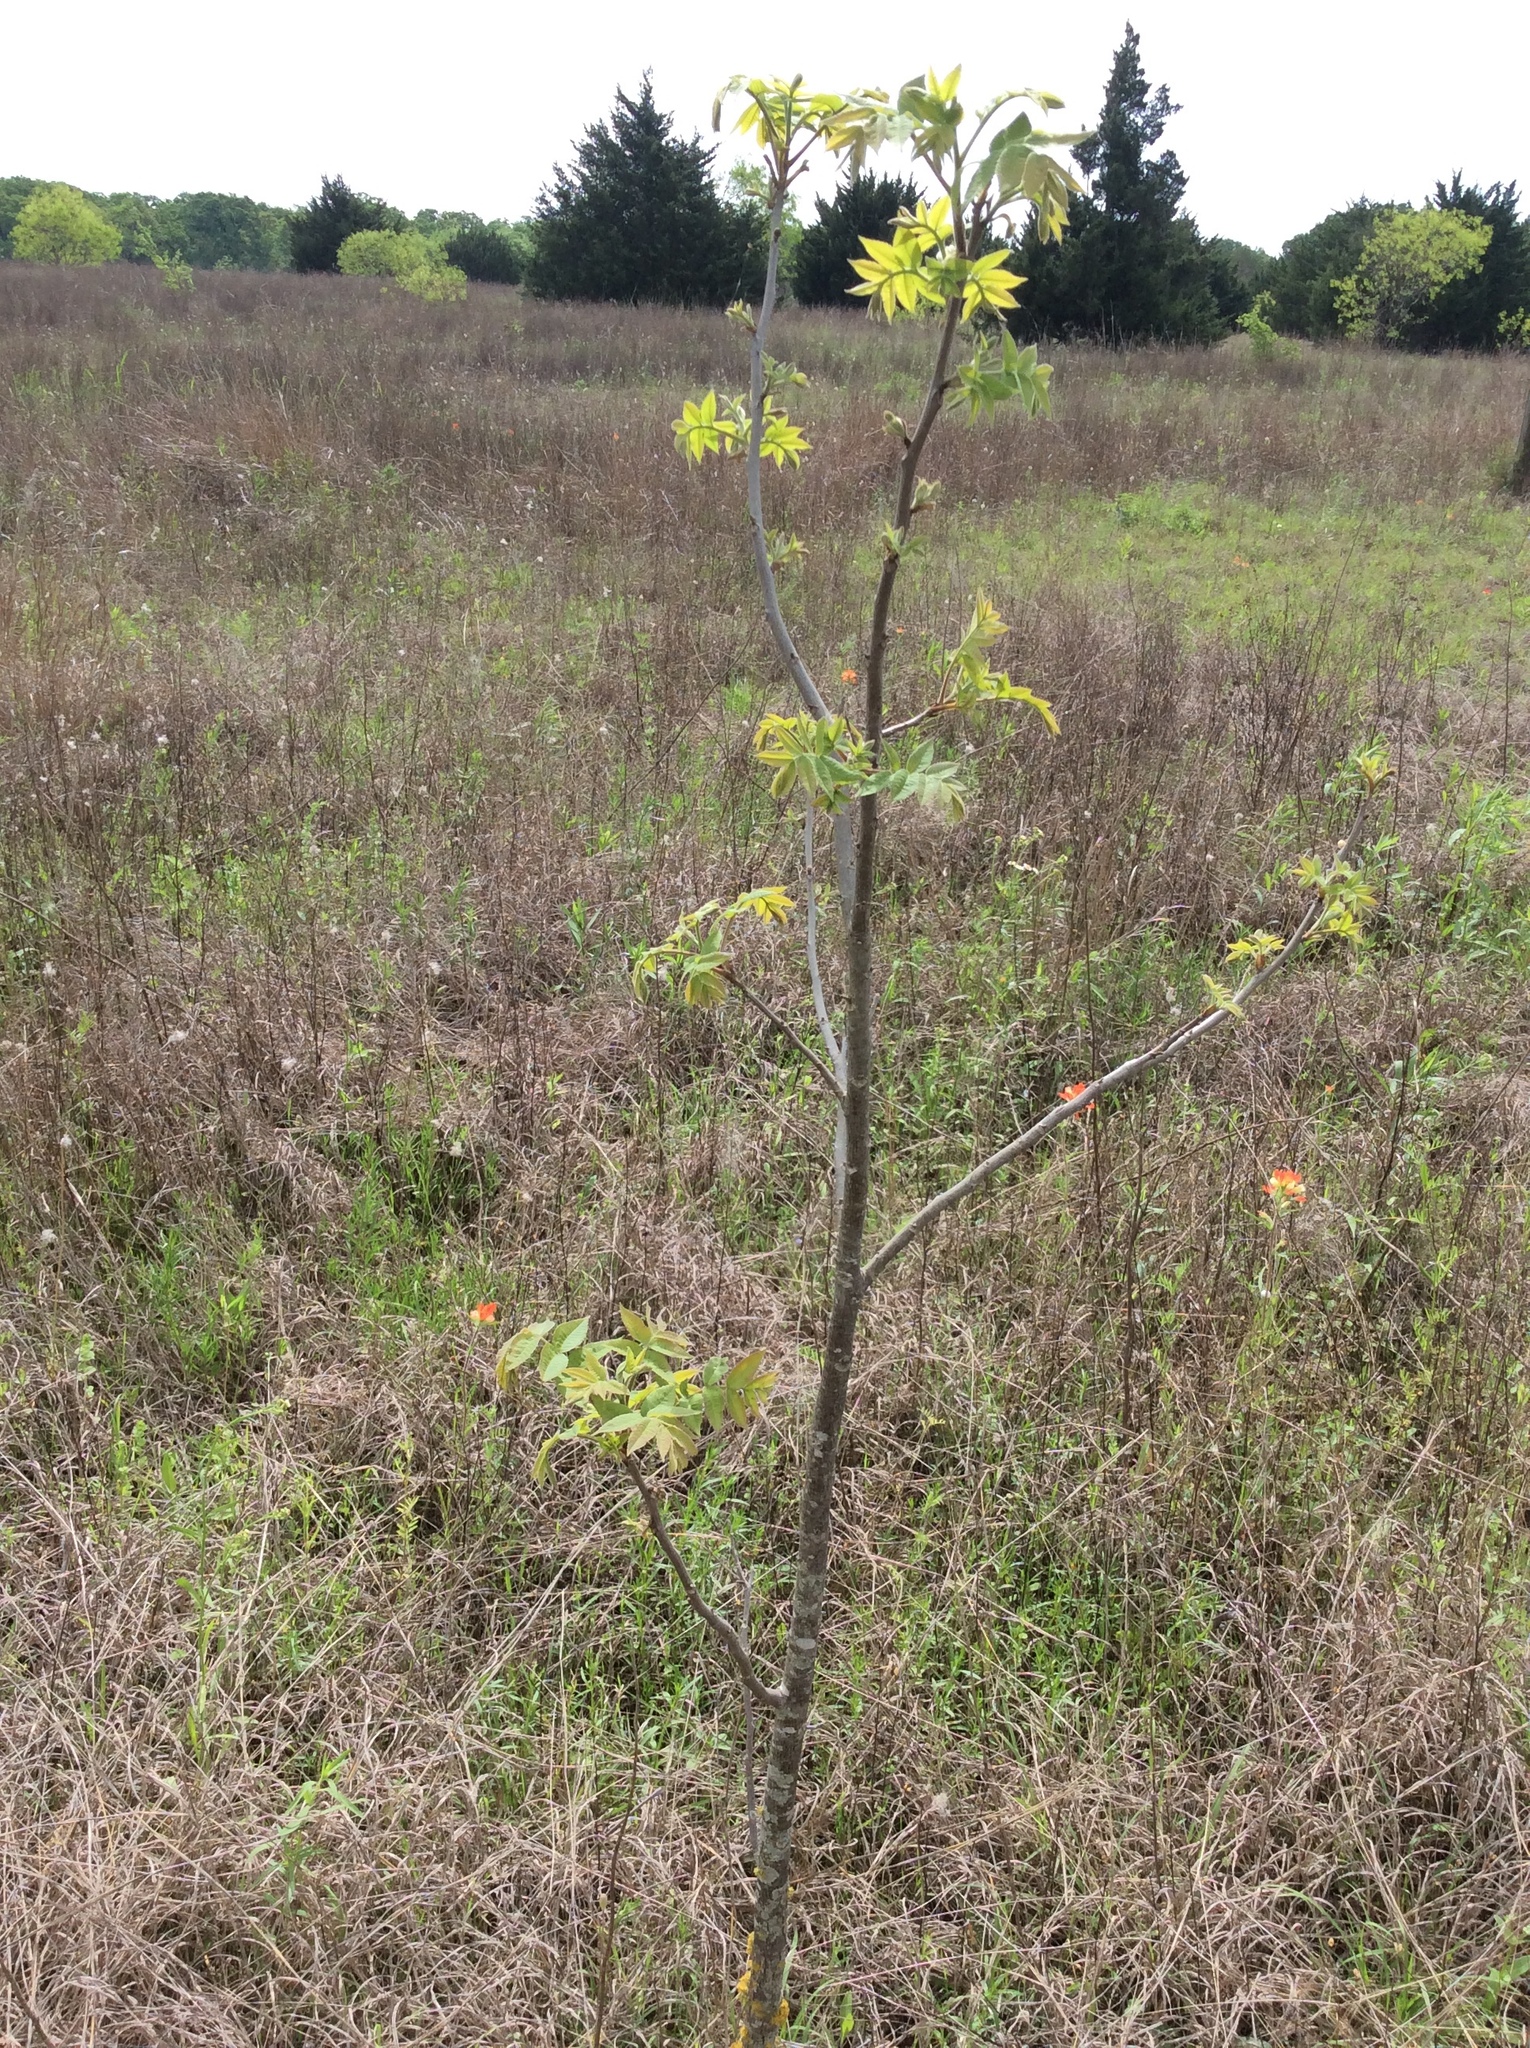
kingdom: Plantae
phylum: Tracheophyta
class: Magnoliopsida
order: Fagales
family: Juglandaceae
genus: Carya
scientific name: Carya illinoinensis
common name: Pecan
